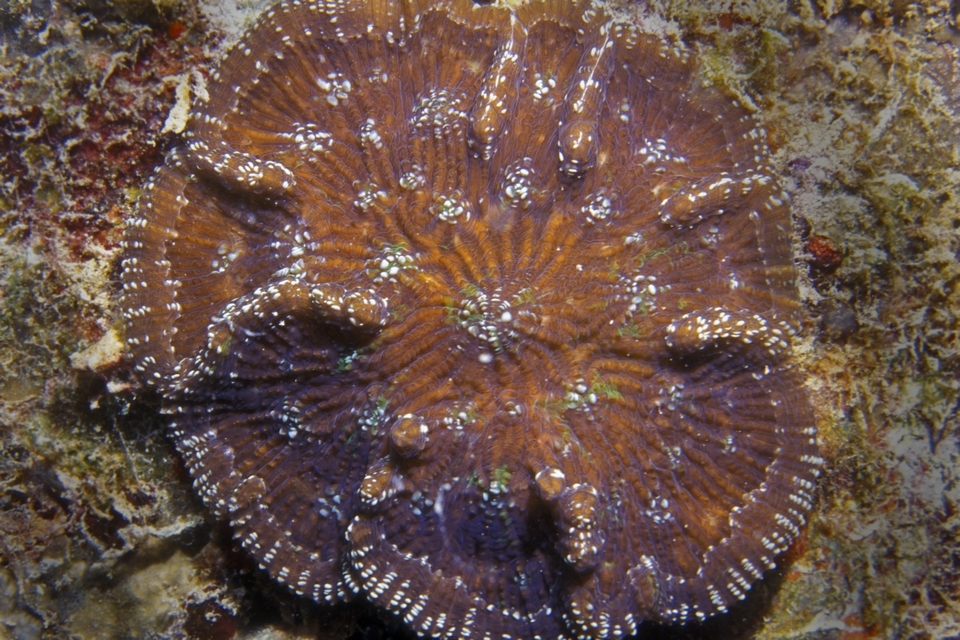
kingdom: Animalia
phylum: Cnidaria
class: Anthozoa
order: Scleractinia
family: Faviidae
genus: Mycetophyllia
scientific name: Mycetophyllia aliciae
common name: Knobby cactus coral
